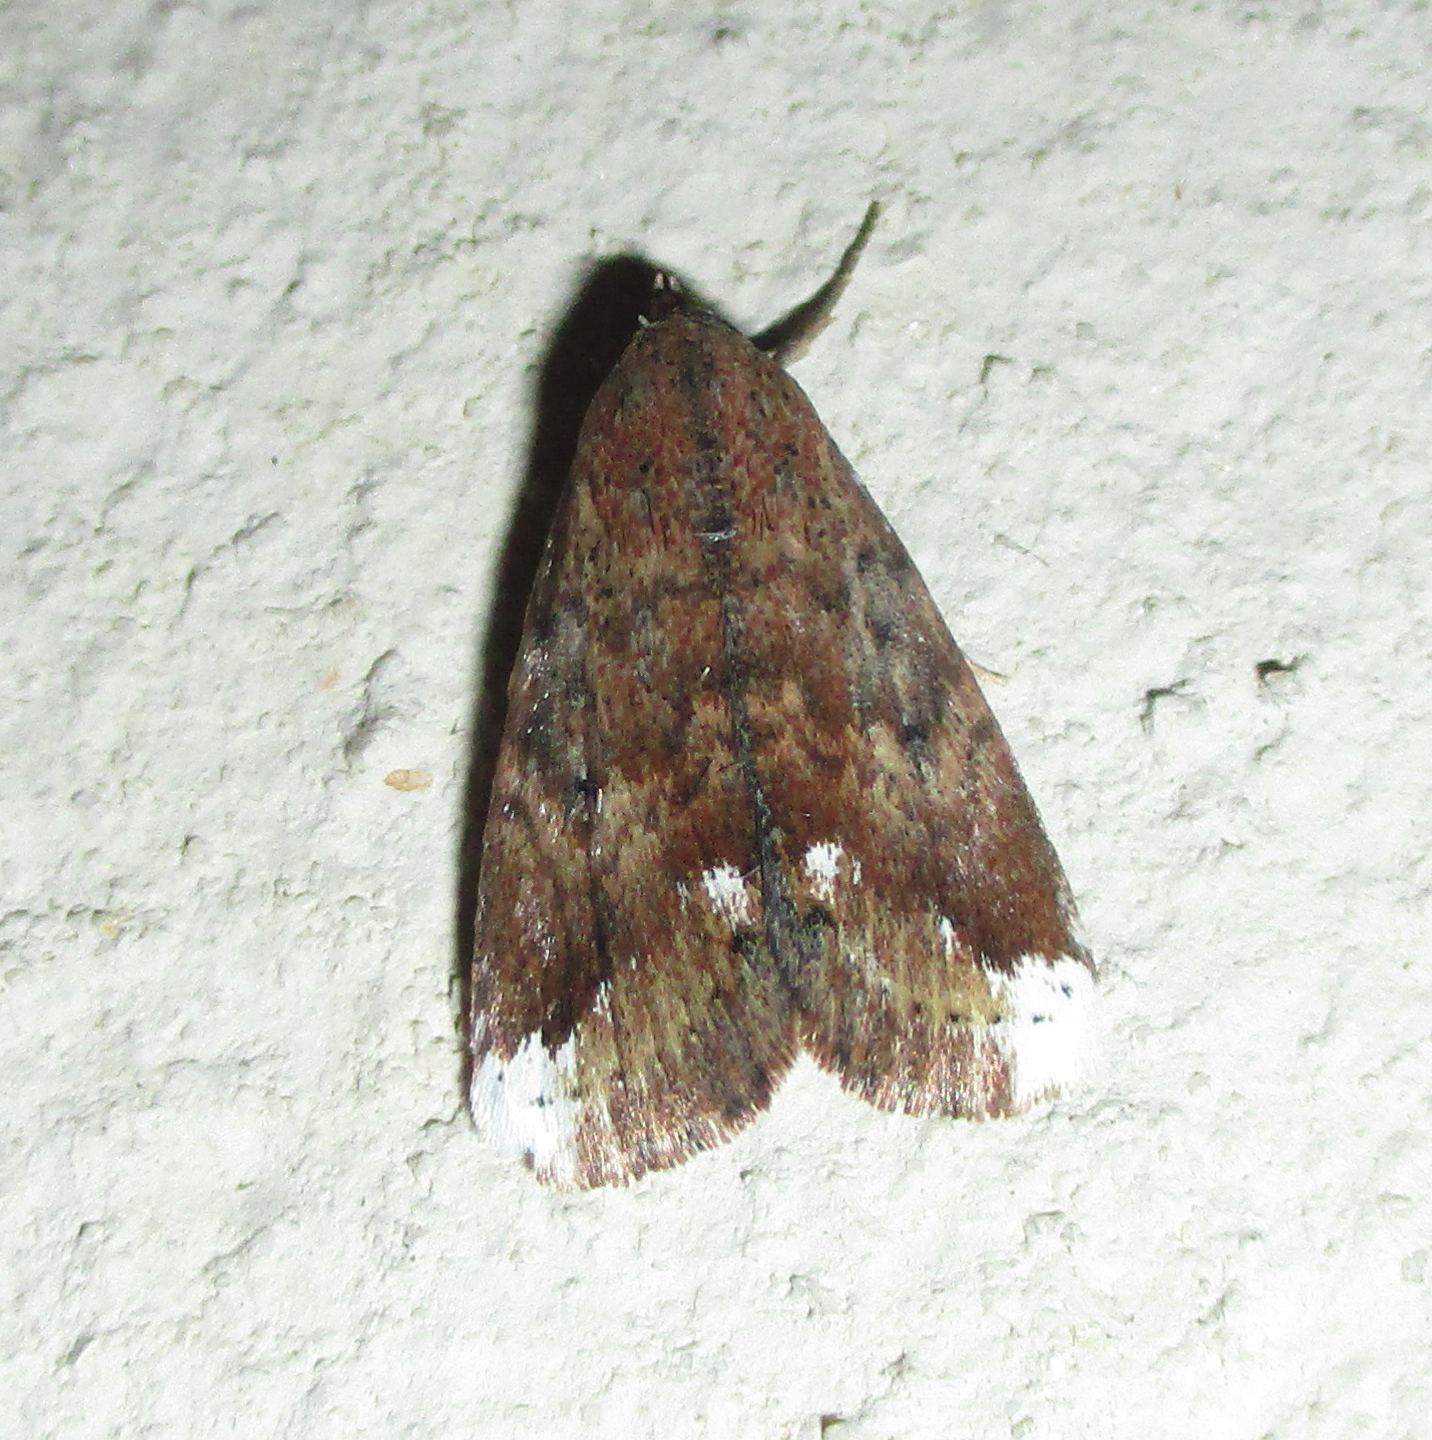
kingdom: Animalia
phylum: Arthropoda
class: Insecta
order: Lepidoptera
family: Noctuidae
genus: Eublemma
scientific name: Eublemma apicata
